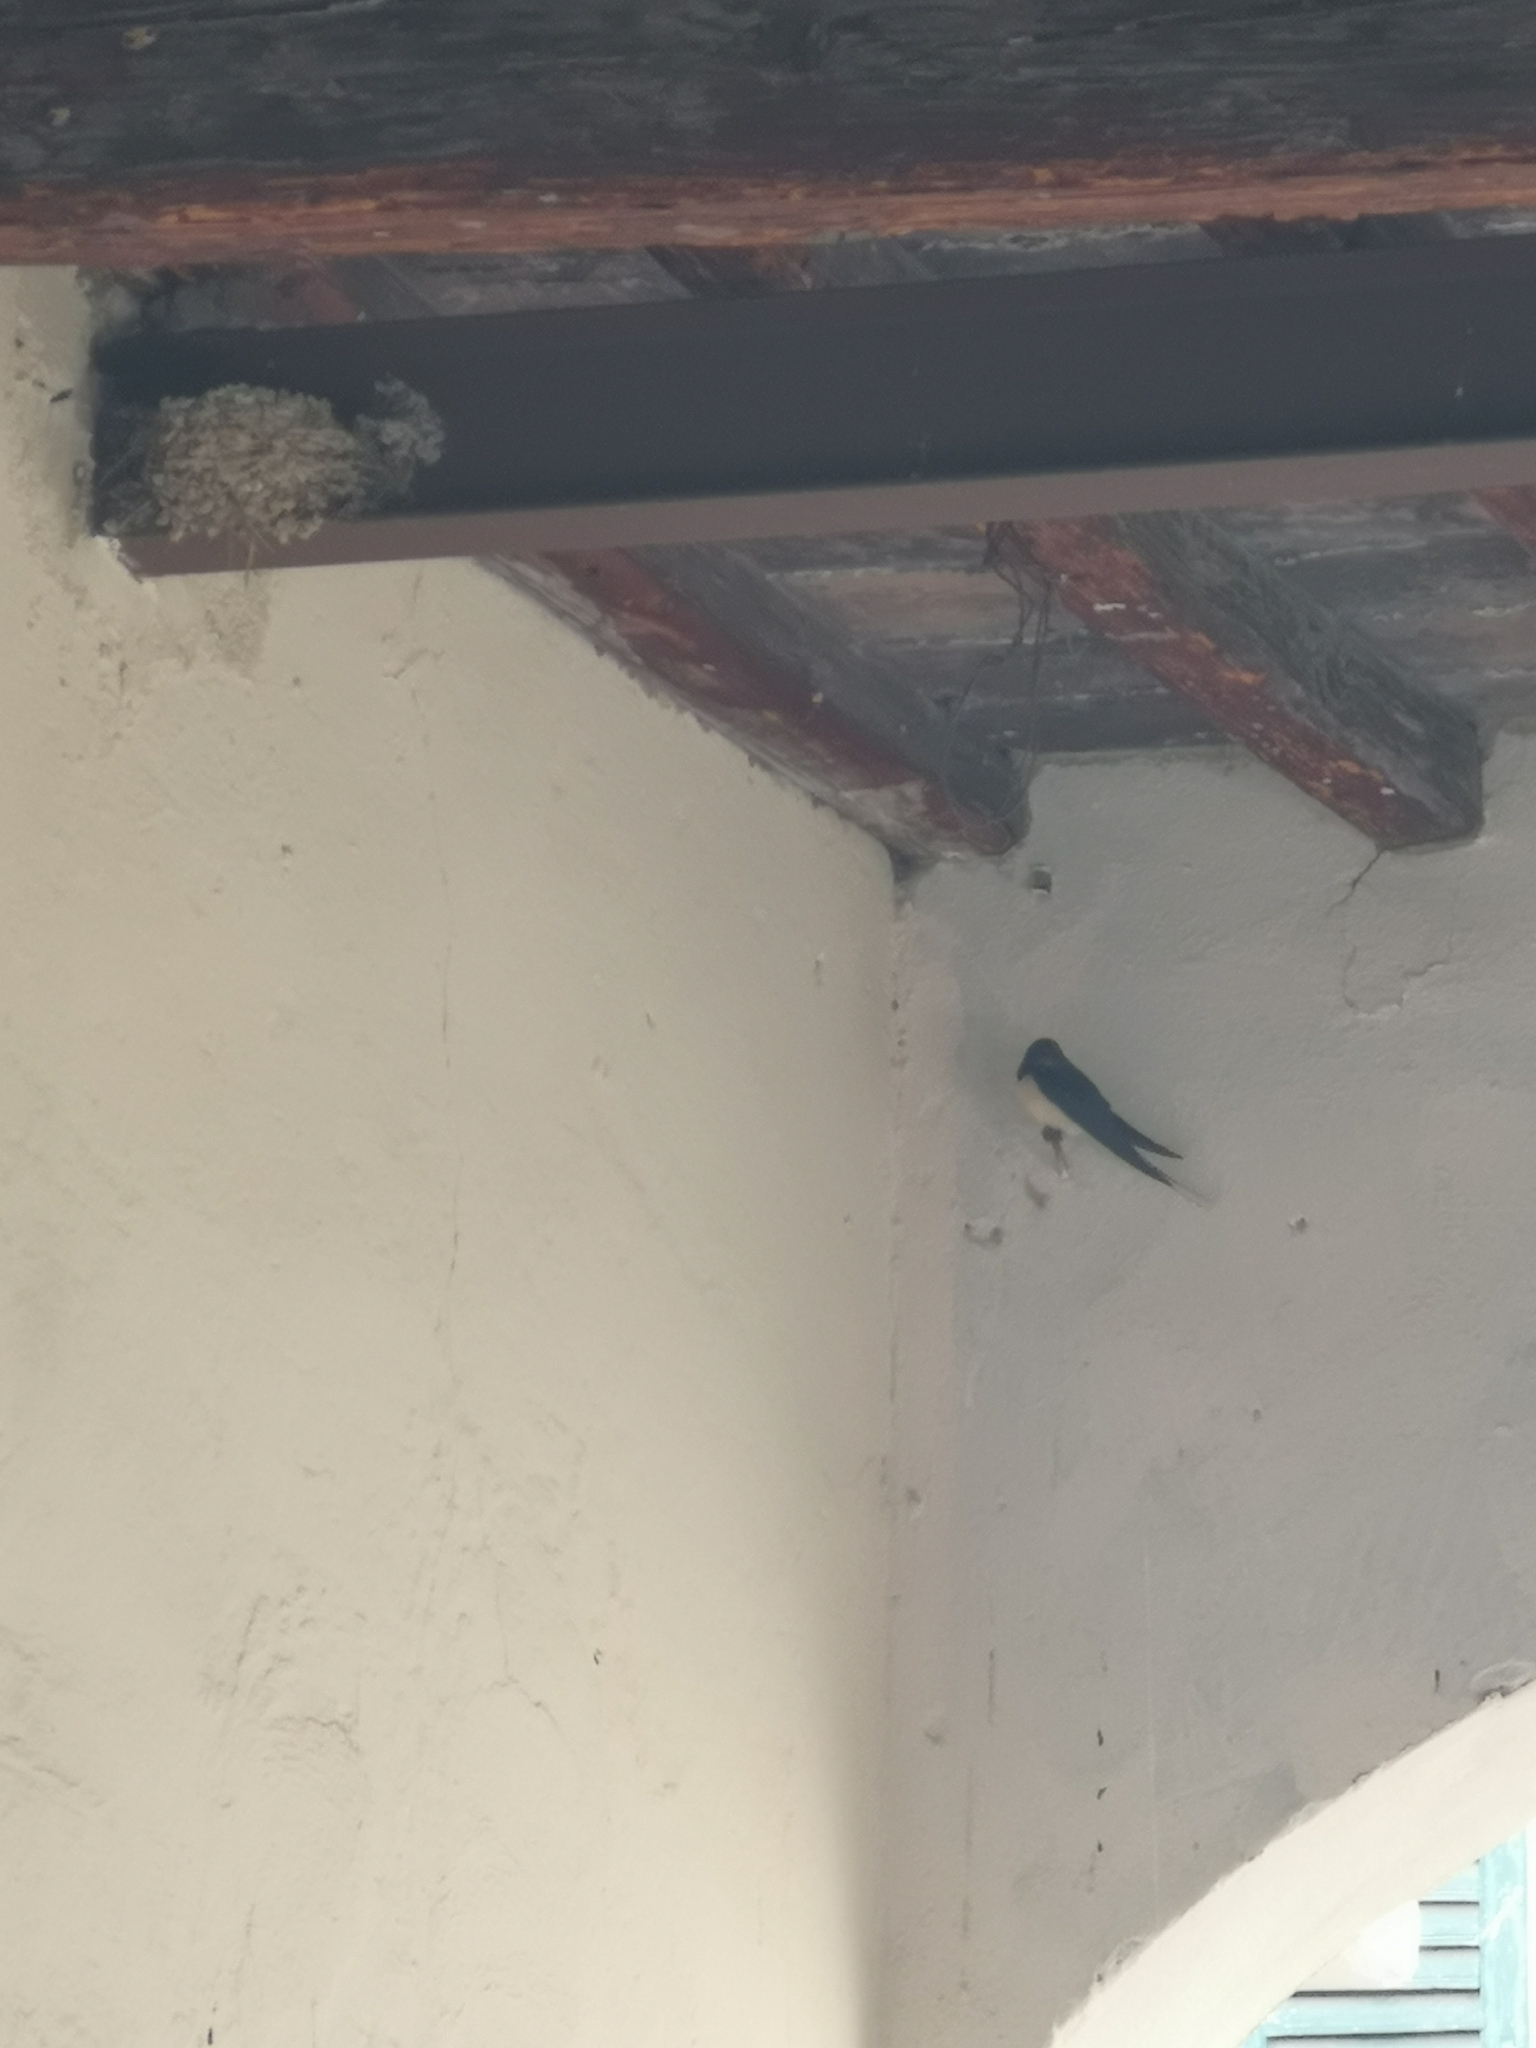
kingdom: Animalia
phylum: Chordata
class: Aves
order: Passeriformes
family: Hirundinidae
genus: Hirundo
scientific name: Hirundo rustica
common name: Barn swallow
